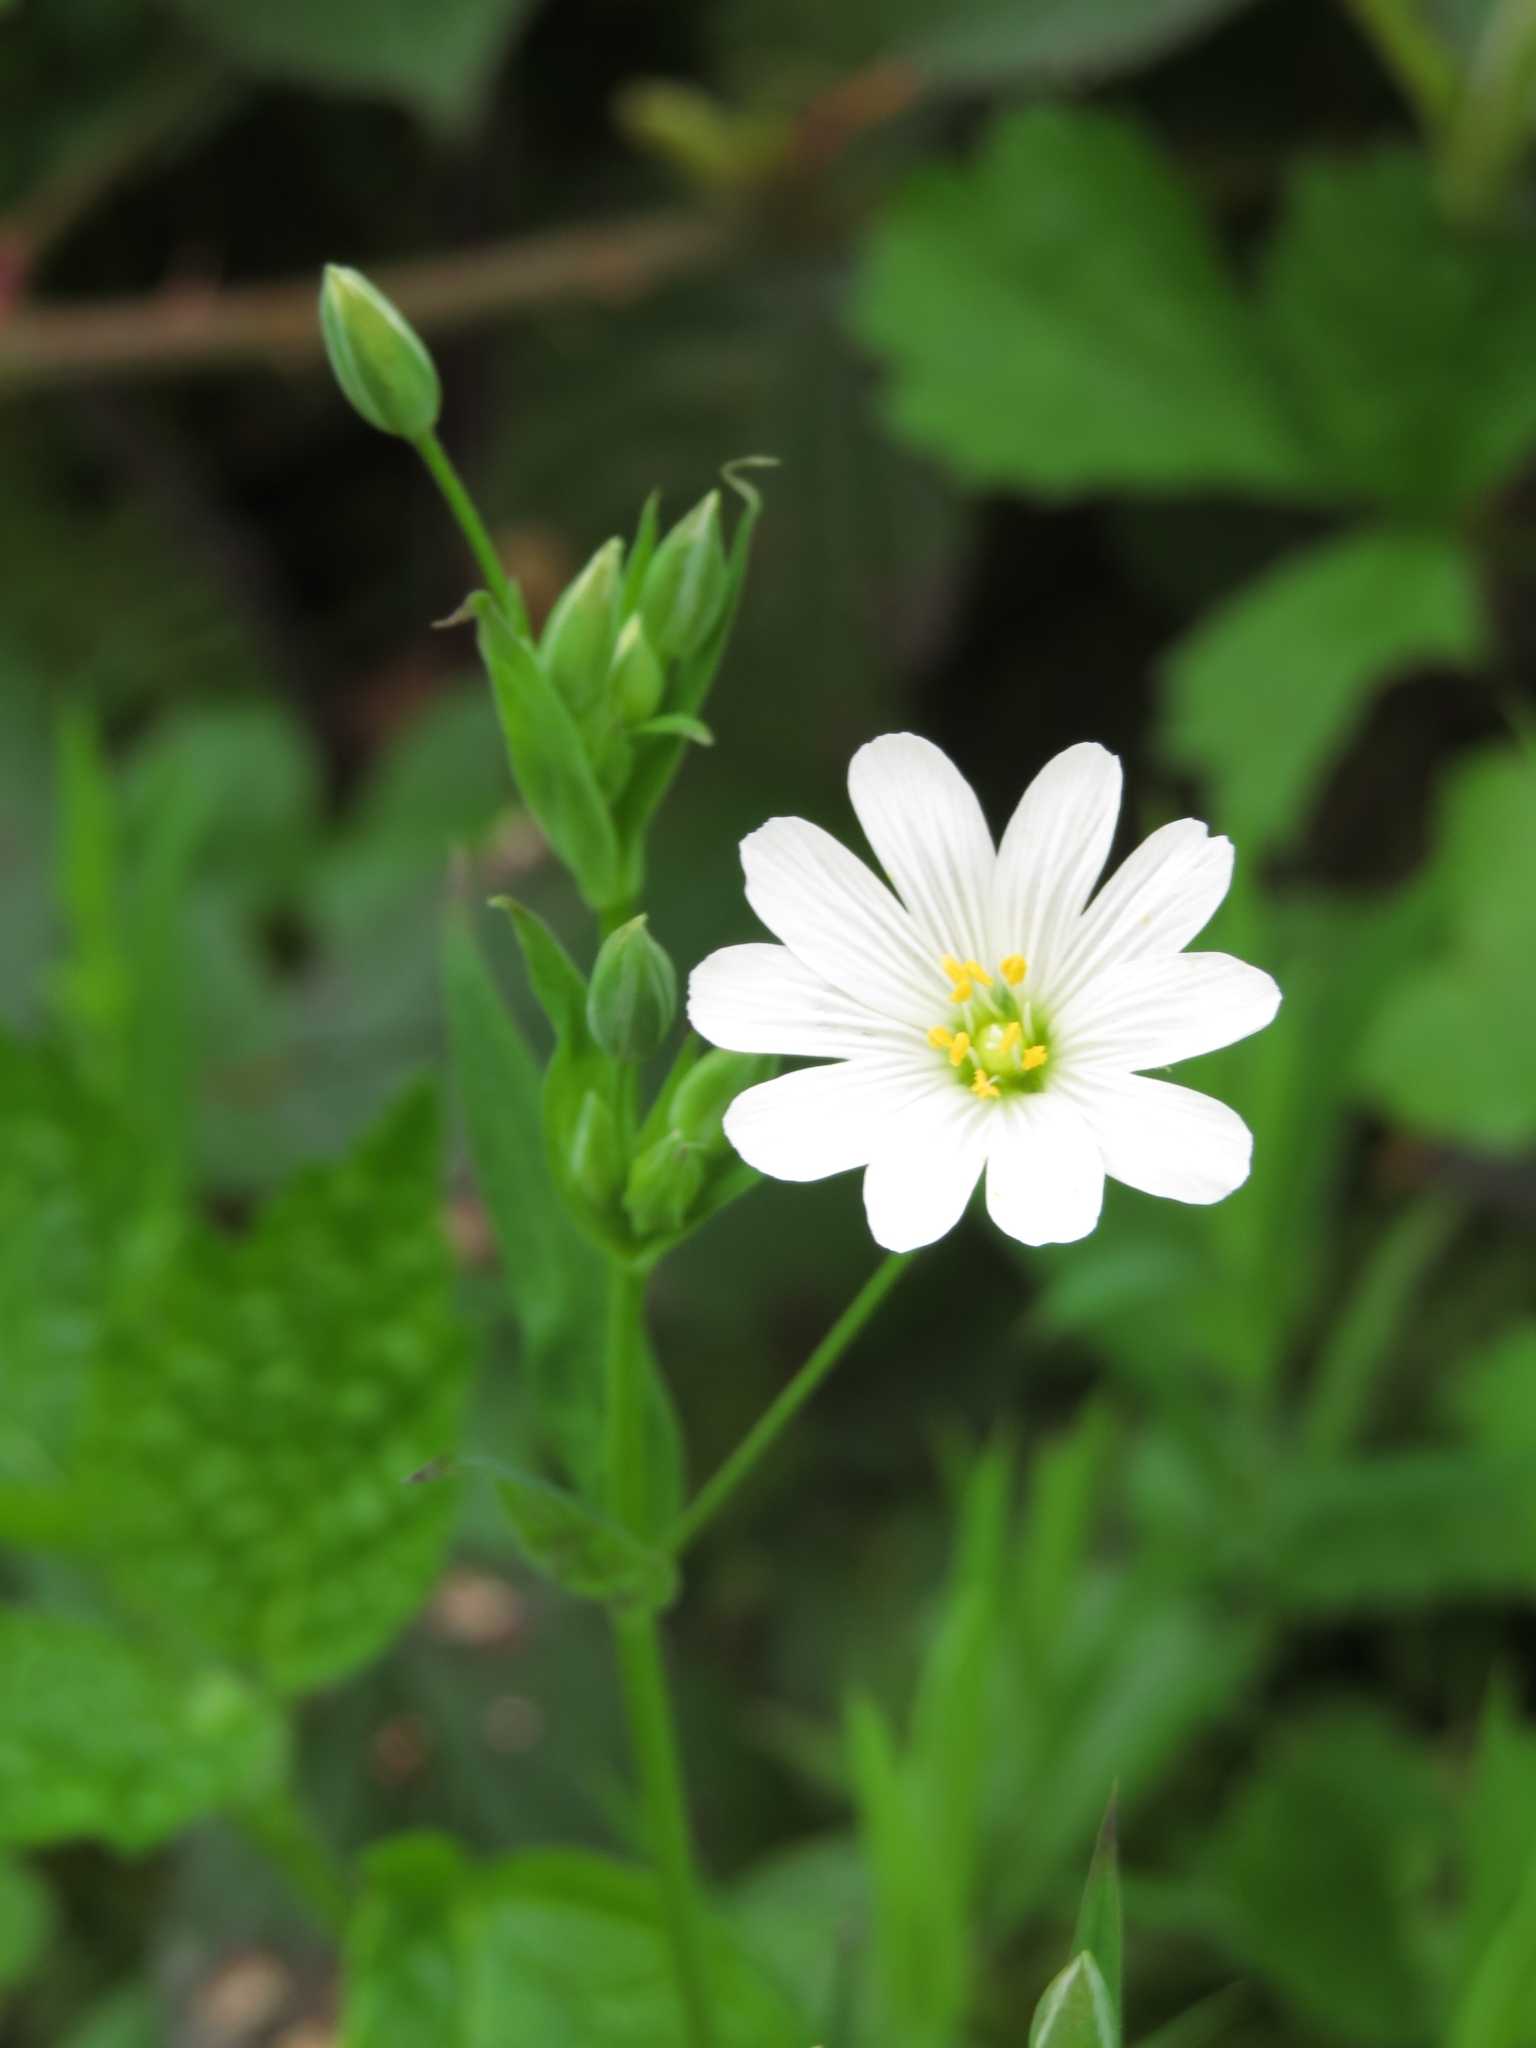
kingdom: Plantae
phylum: Tracheophyta
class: Magnoliopsida
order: Caryophyllales
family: Caryophyllaceae
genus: Rabelera
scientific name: Rabelera holostea
